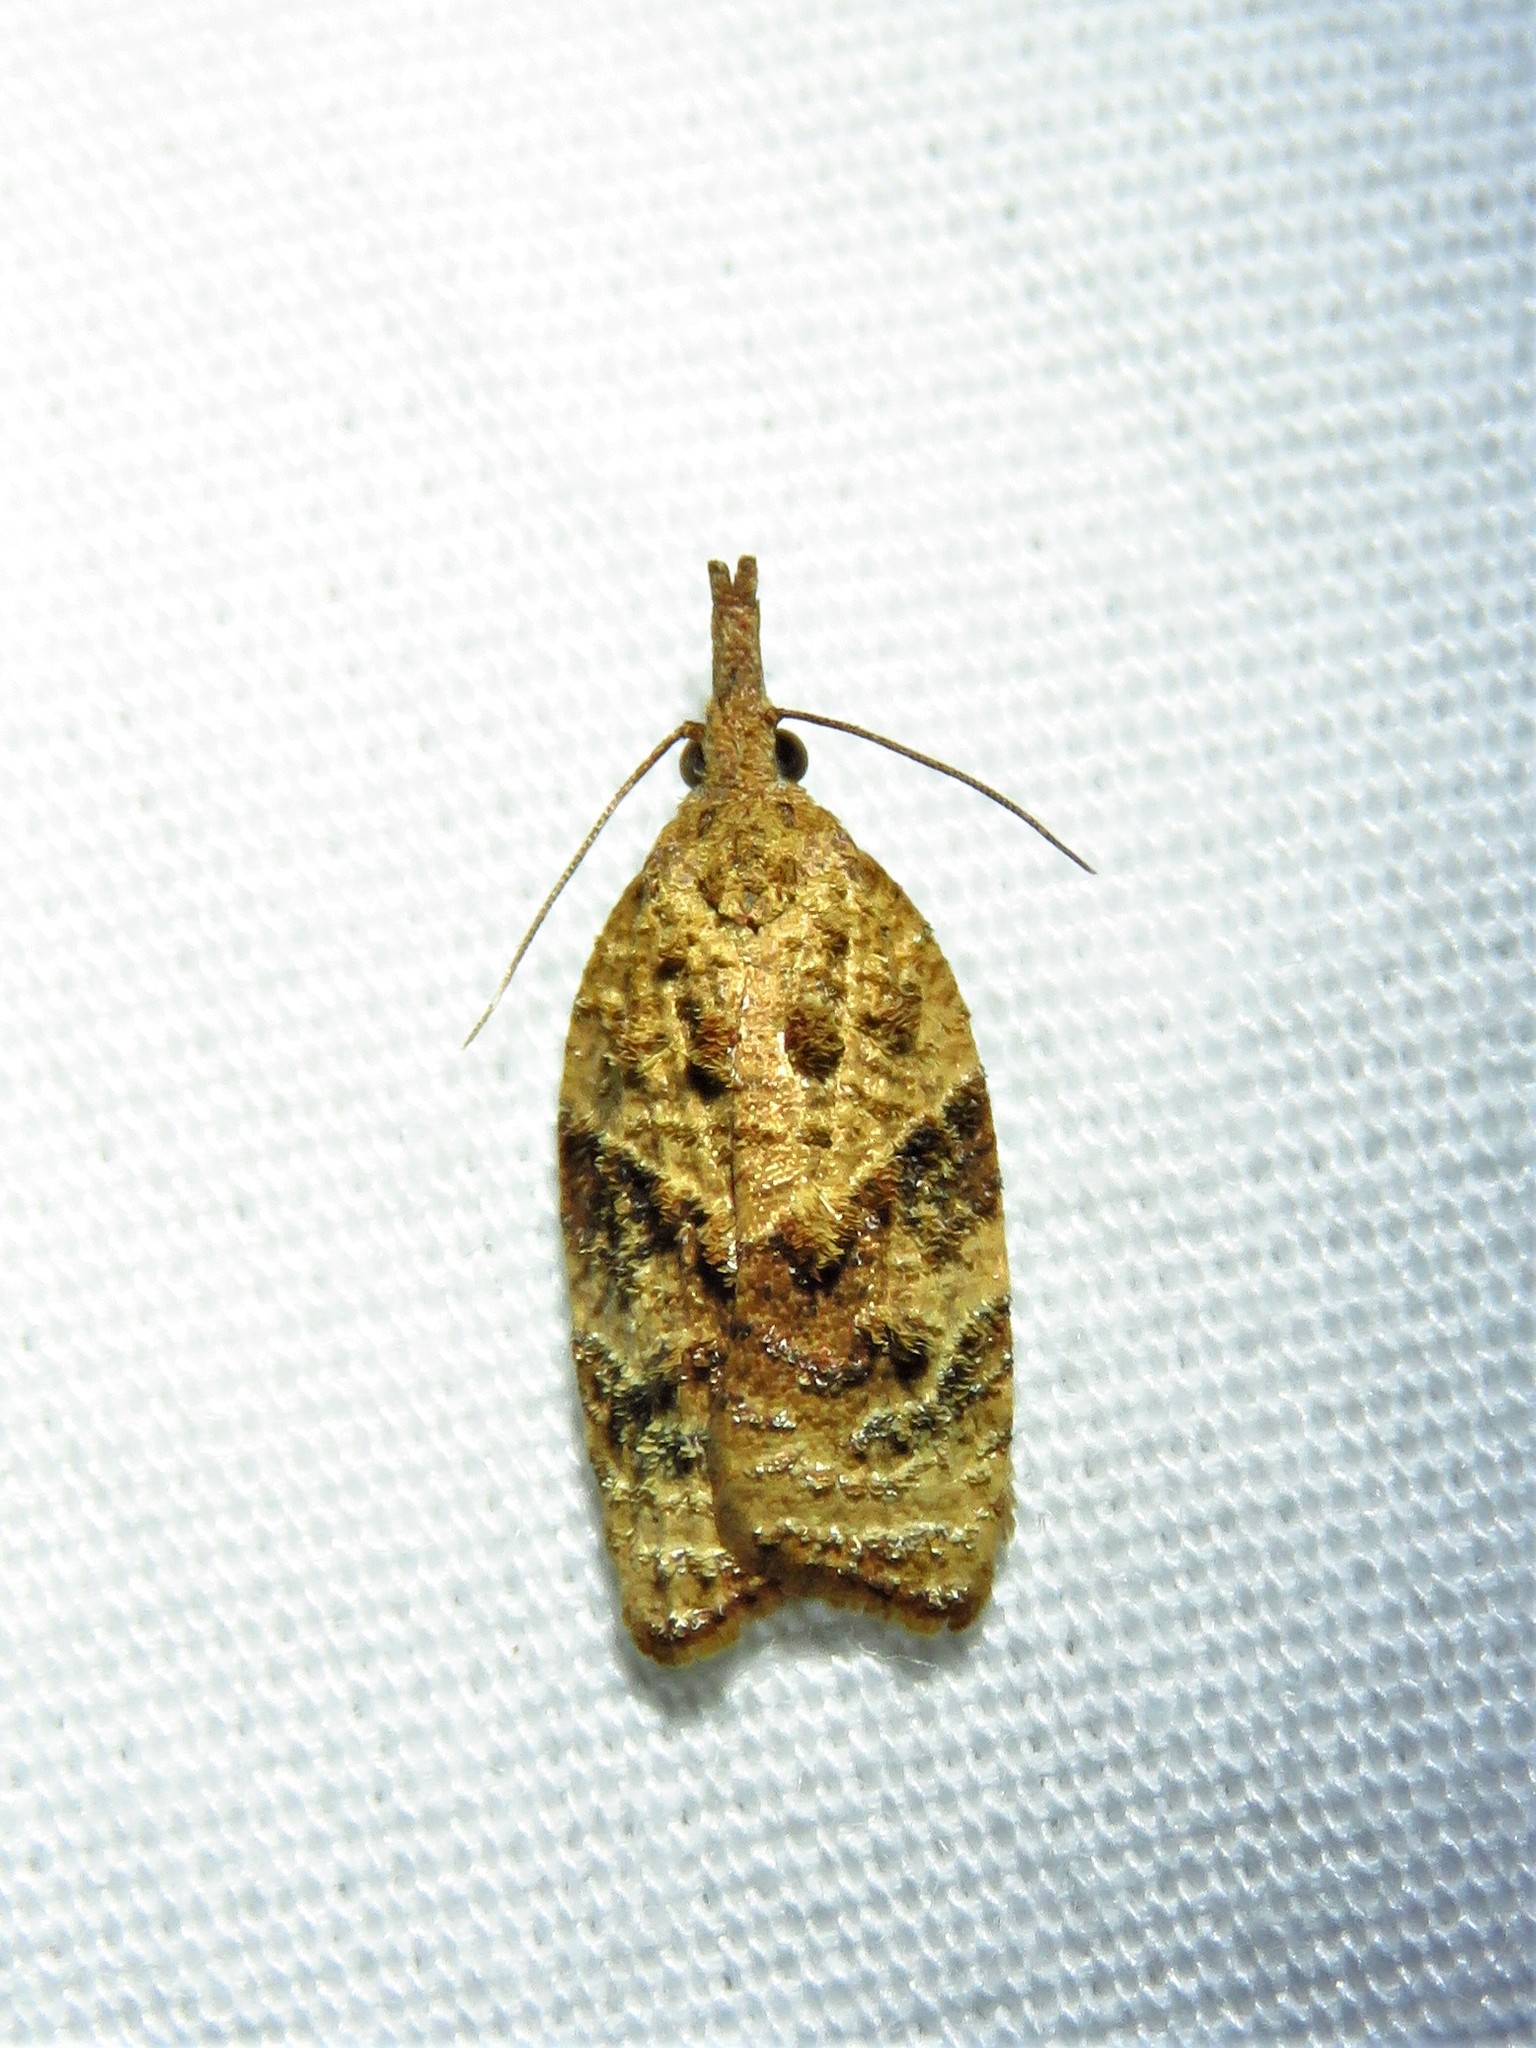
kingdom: Animalia
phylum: Arthropoda
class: Insecta
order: Lepidoptera
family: Tortricidae
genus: Platynota
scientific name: Platynota flavedana
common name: Black-shaded platynota moth
